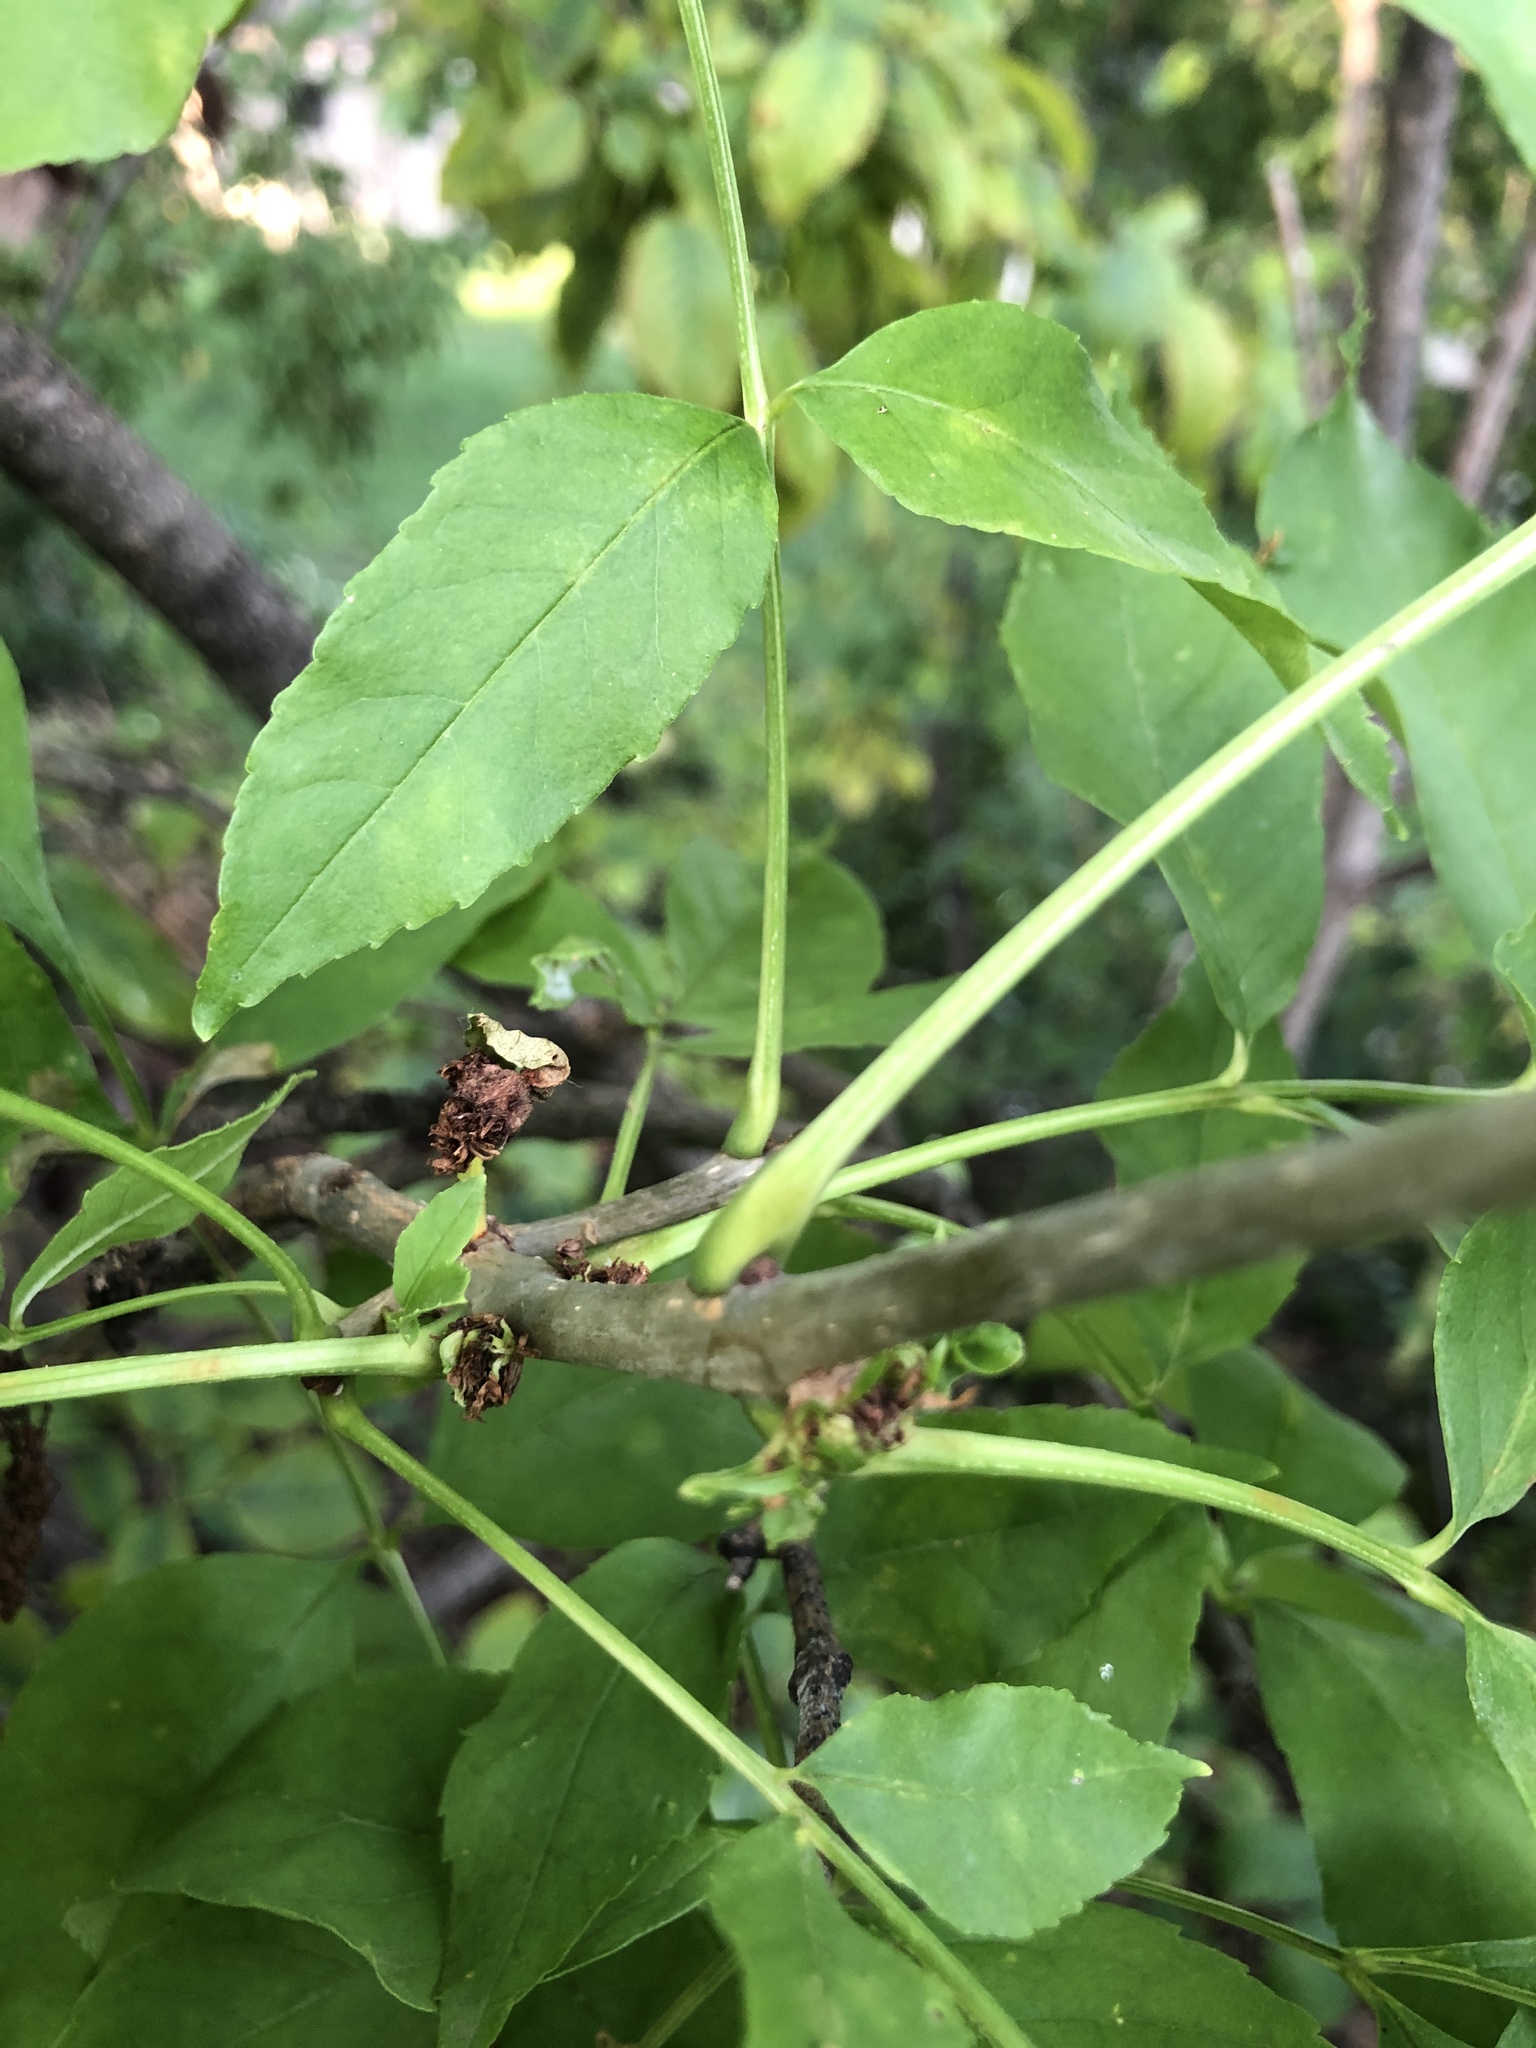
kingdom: Plantae
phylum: Tracheophyta
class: Magnoliopsida
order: Lamiales
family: Oleaceae
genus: Fraxinus
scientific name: Fraxinus pennsylvanica
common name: Green ash
